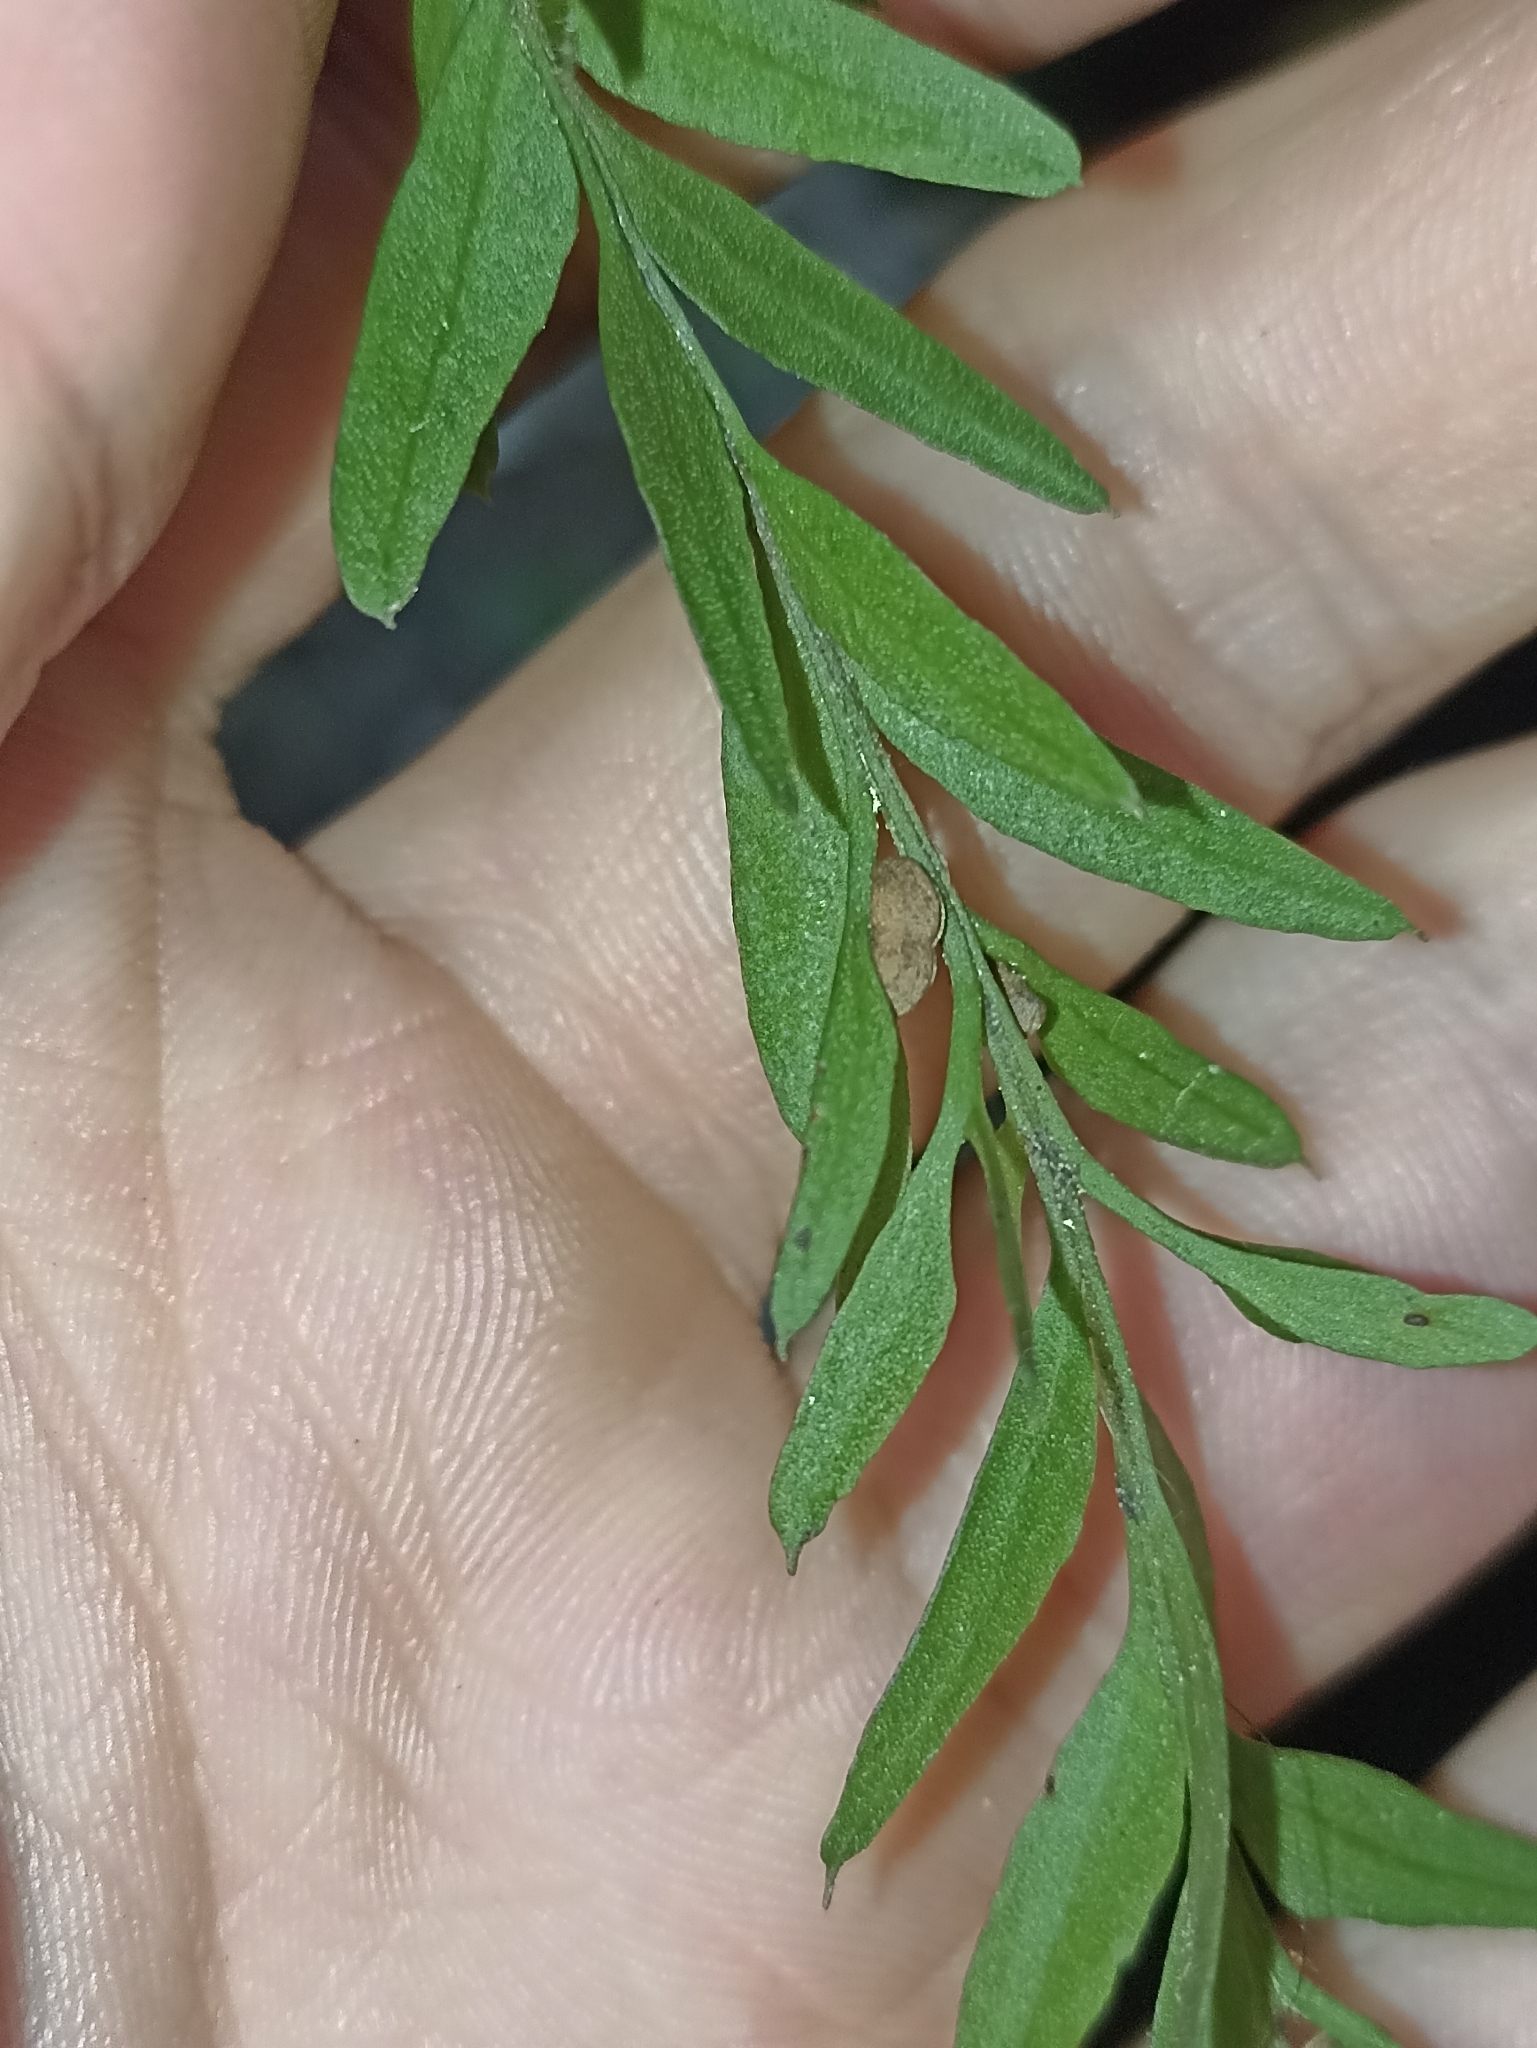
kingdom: Plantae
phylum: Tracheophyta
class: Polypodiopsida
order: Psilotales
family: Psilotaceae
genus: Tmesipteris
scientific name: Tmesipteris elongata
